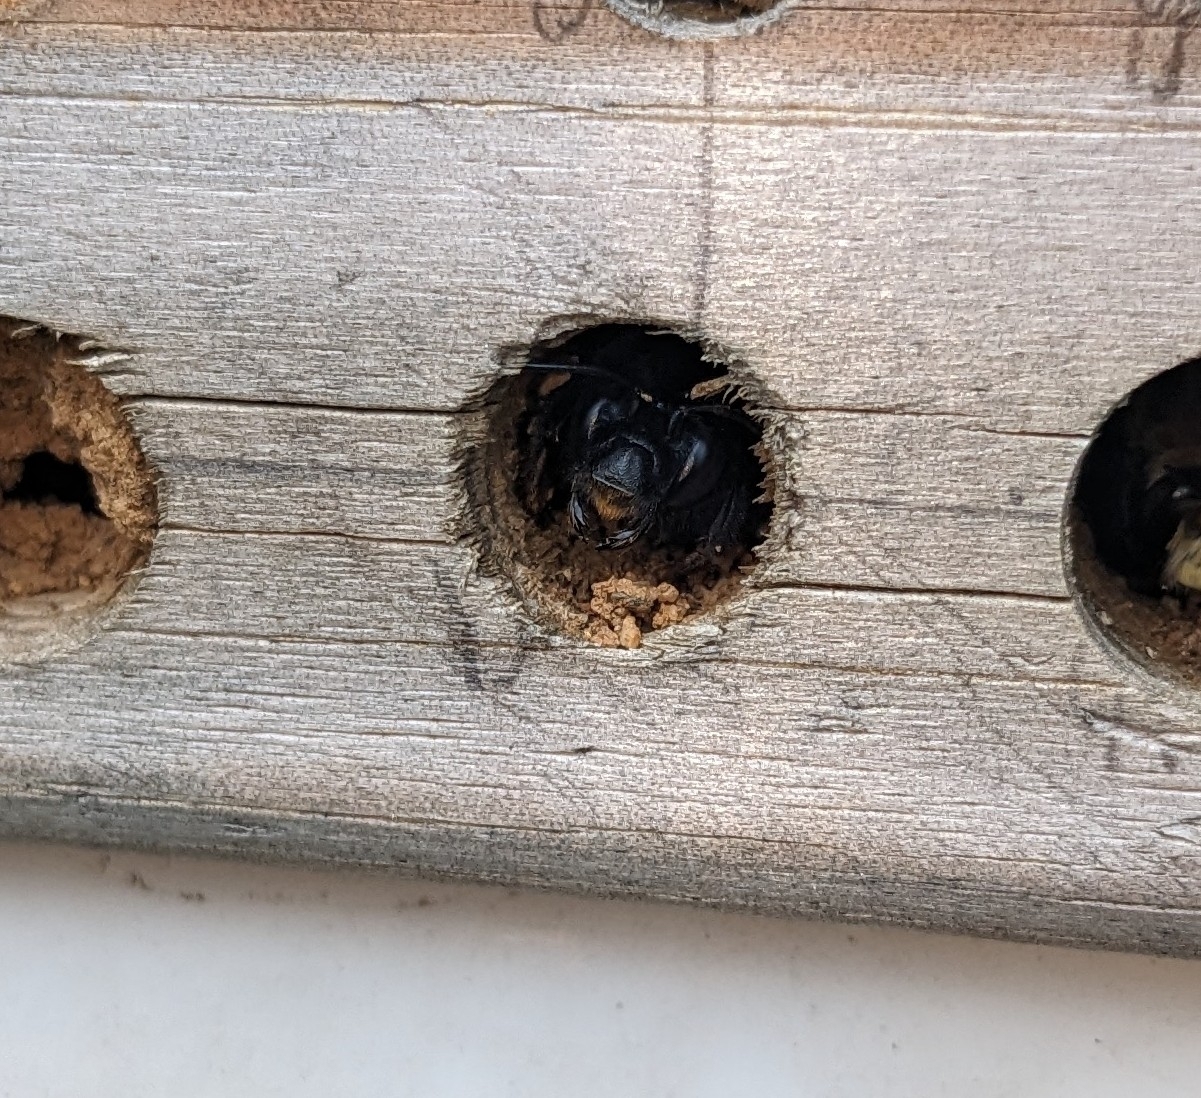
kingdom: Animalia
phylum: Arthropoda
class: Insecta
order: Hymenoptera
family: Apidae
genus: Anthophora
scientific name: Anthophora plumipes
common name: Hairy-footed flower bee
